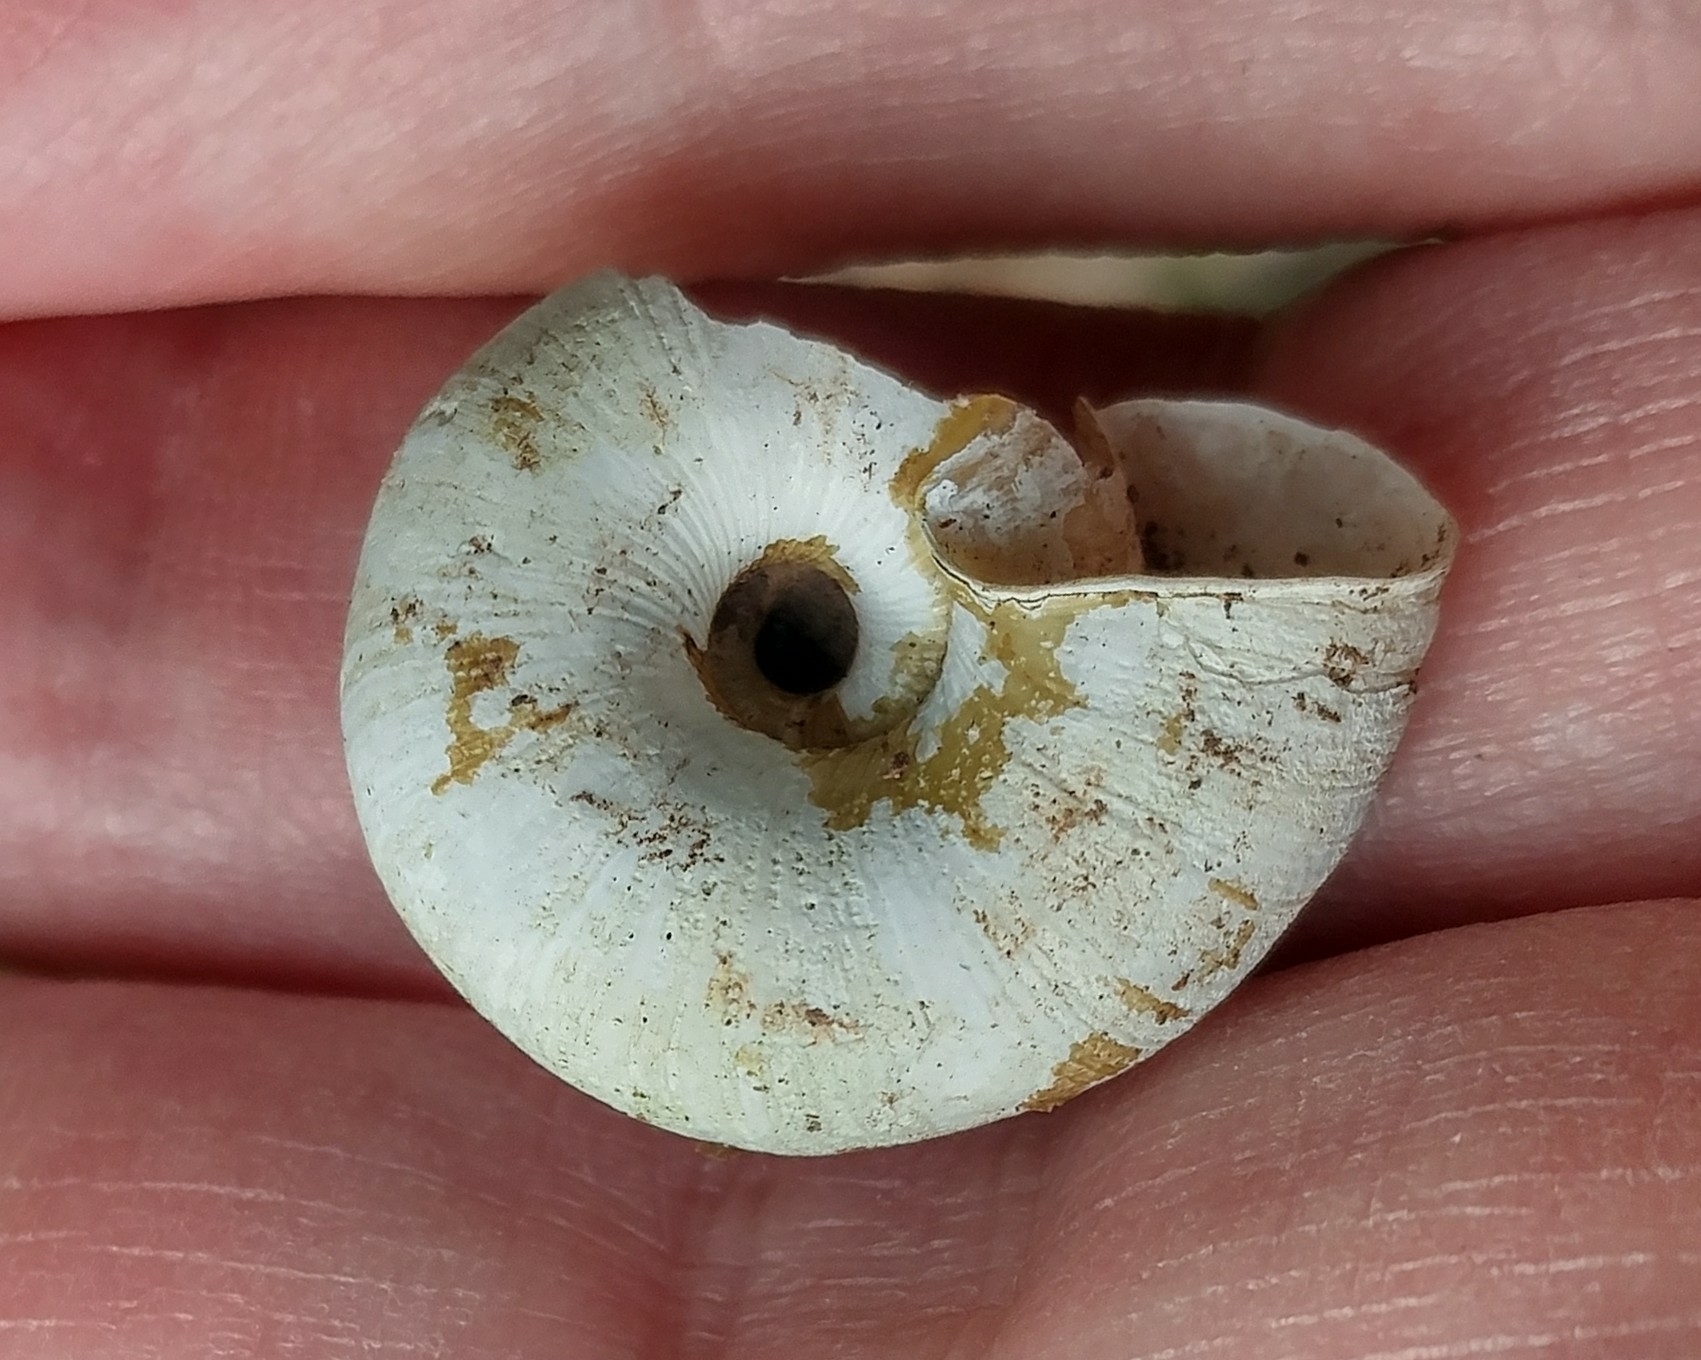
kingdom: Animalia
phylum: Mollusca
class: Gastropoda
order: Stylommatophora
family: Haplotrematidae
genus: Haplotrema
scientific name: Haplotrema vancouverense
